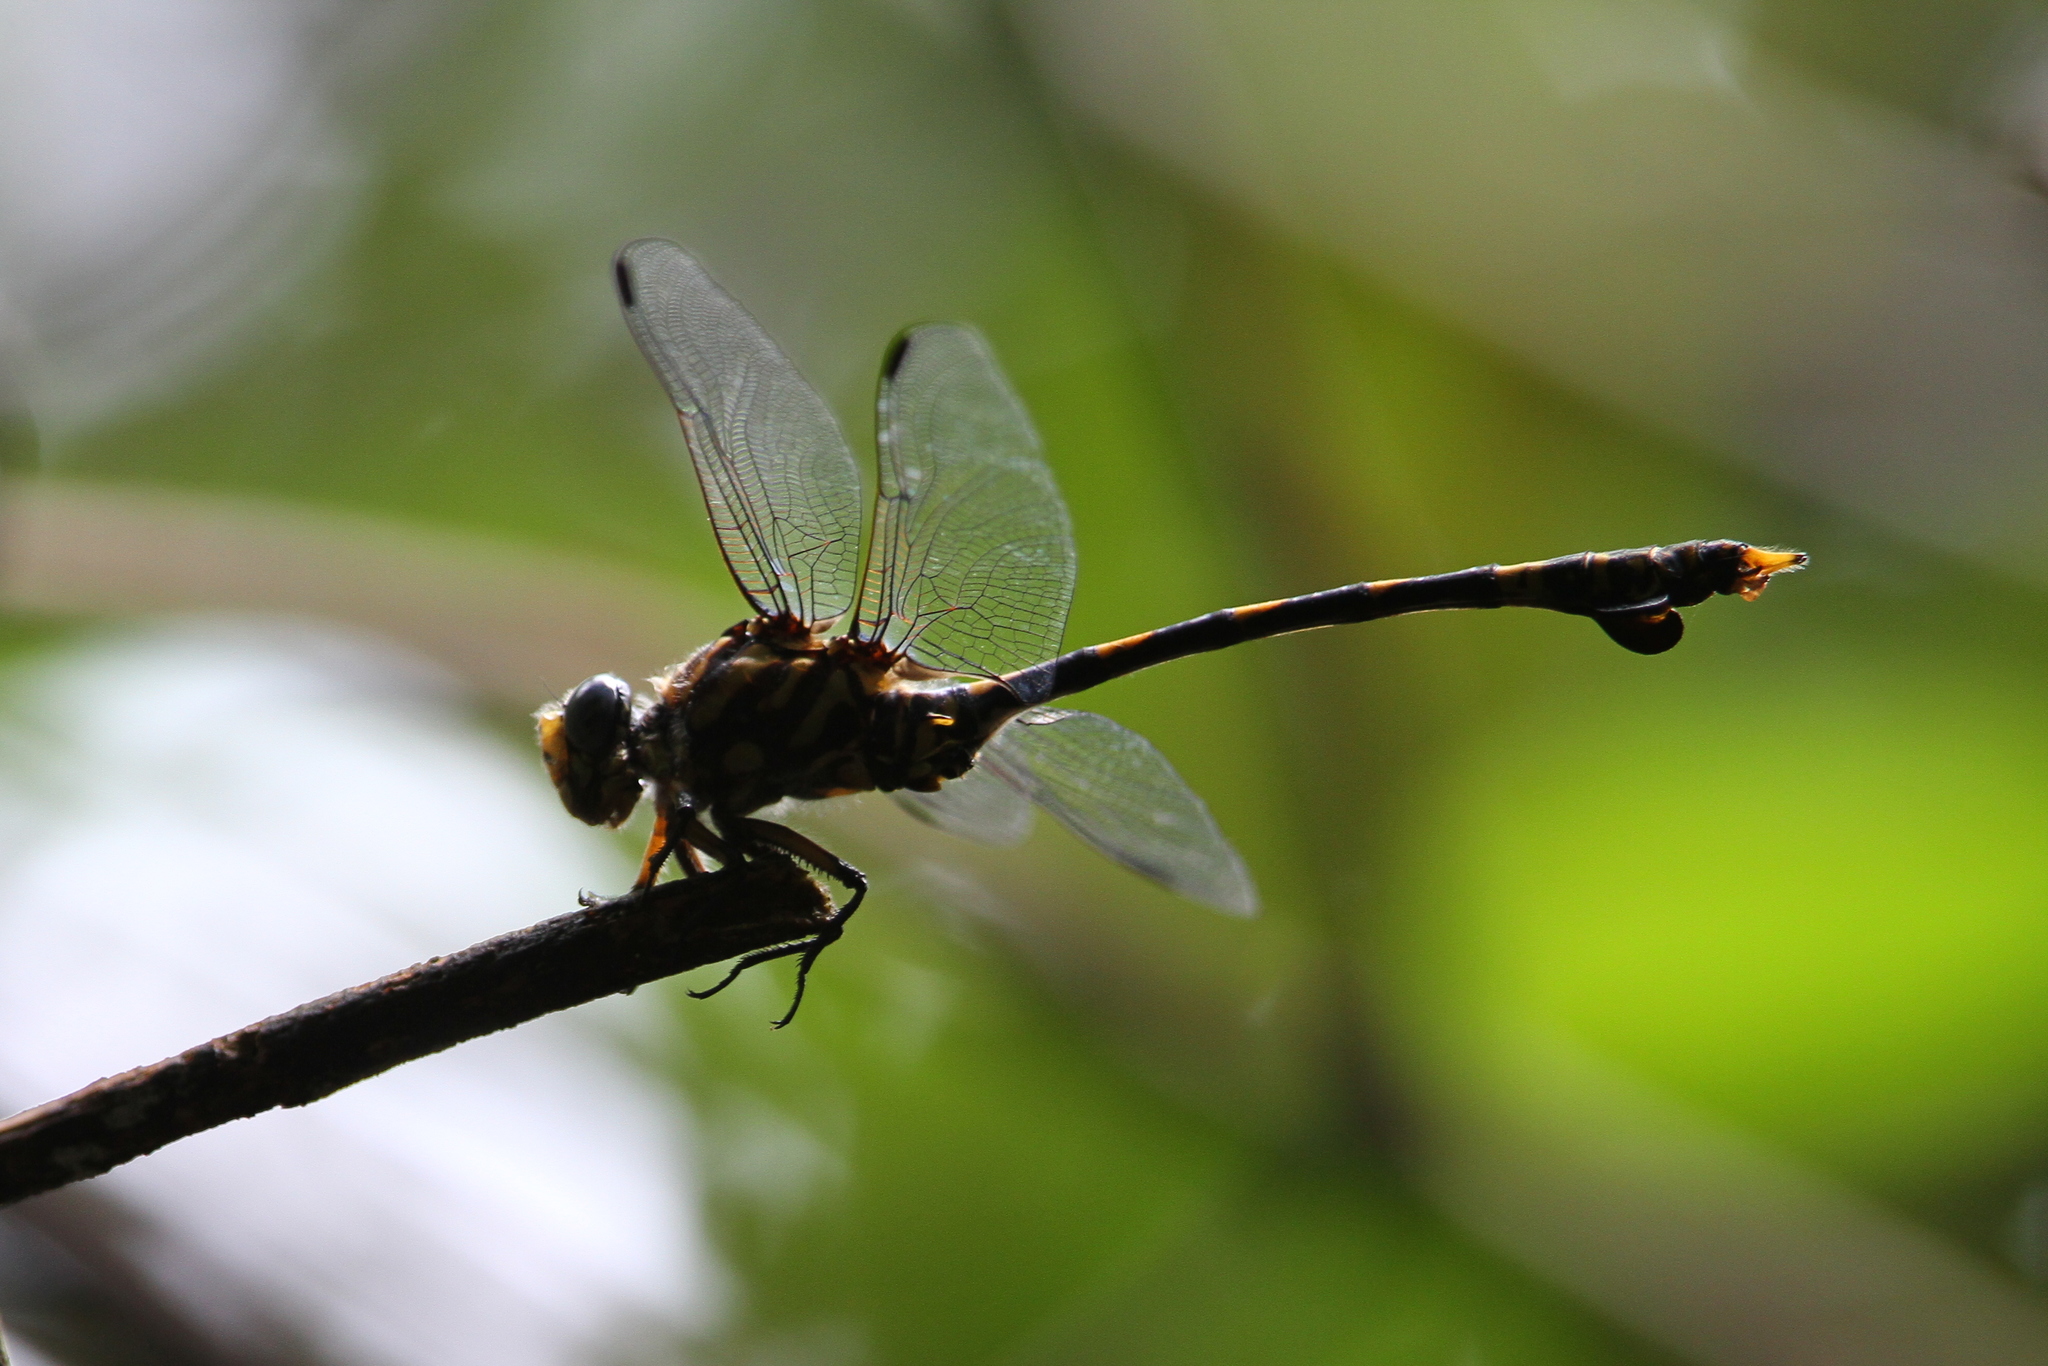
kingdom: Animalia
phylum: Arthropoda
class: Insecta
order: Odonata
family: Gomphidae
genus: Ictinogomphus
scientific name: Ictinogomphus ferox
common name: Common tiger
